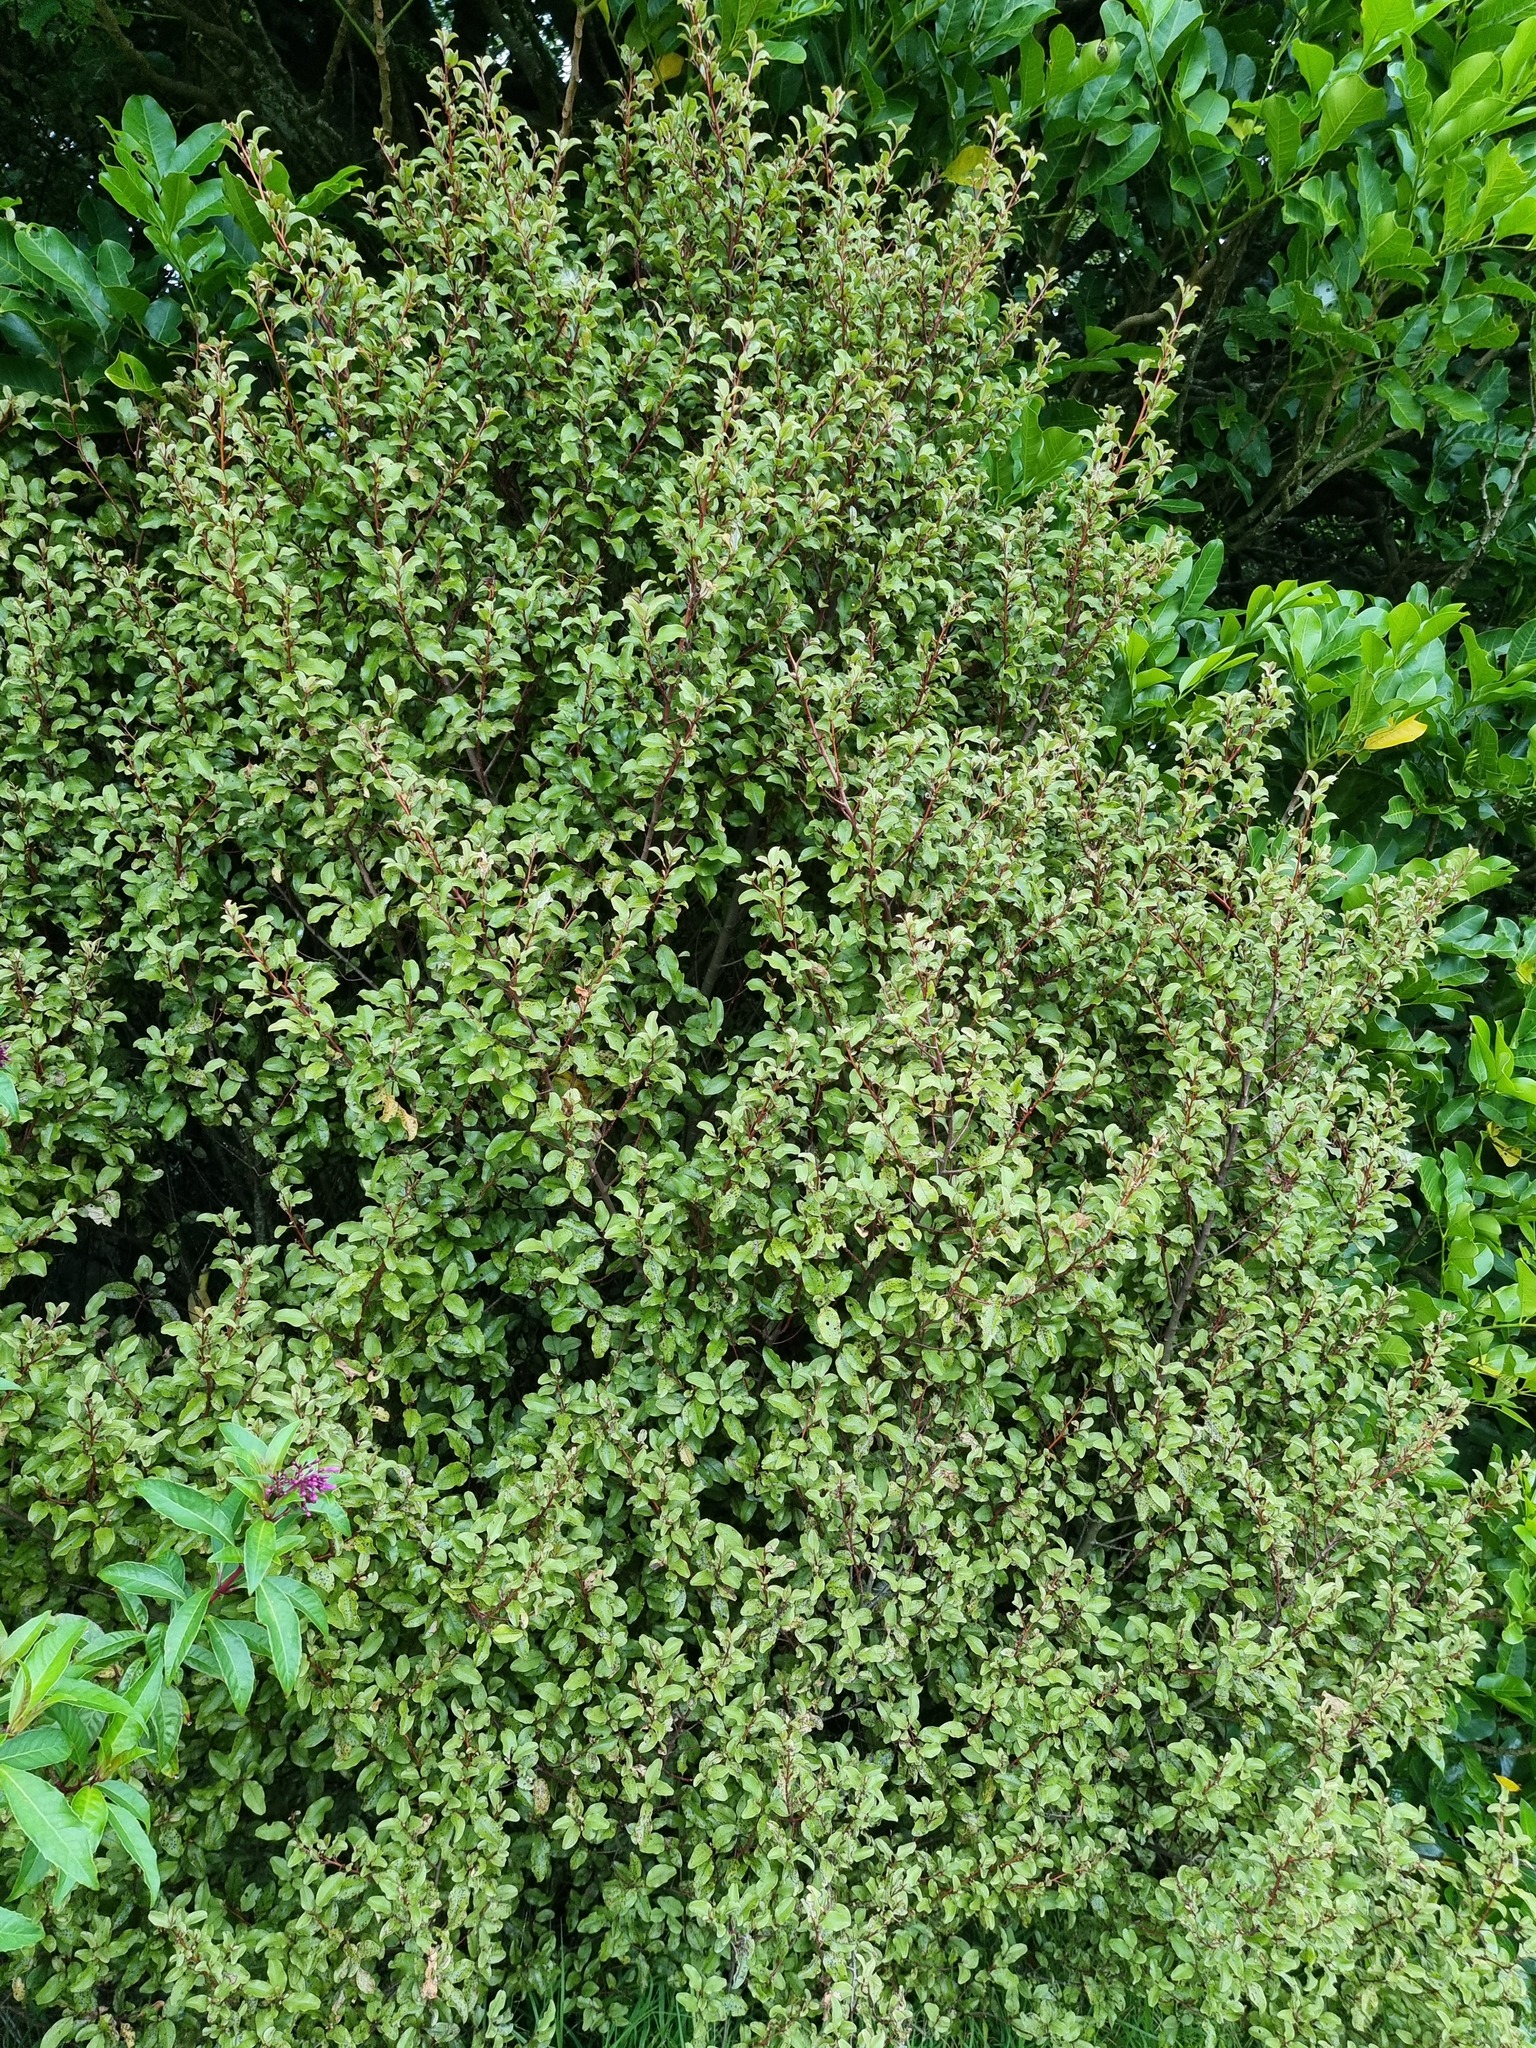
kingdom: Plantae
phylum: Tracheophyta
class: Magnoliopsida
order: Ericales
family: Primulaceae
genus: Myrsine
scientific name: Myrsine australis
